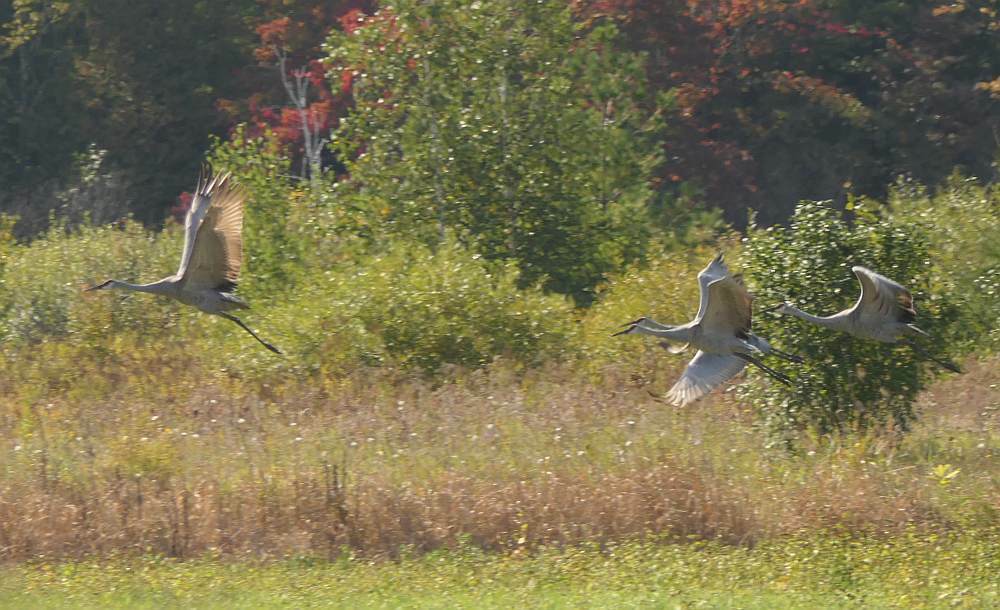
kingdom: Animalia
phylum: Chordata
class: Aves
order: Gruiformes
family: Gruidae
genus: Grus
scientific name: Grus canadensis
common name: Sandhill crane
